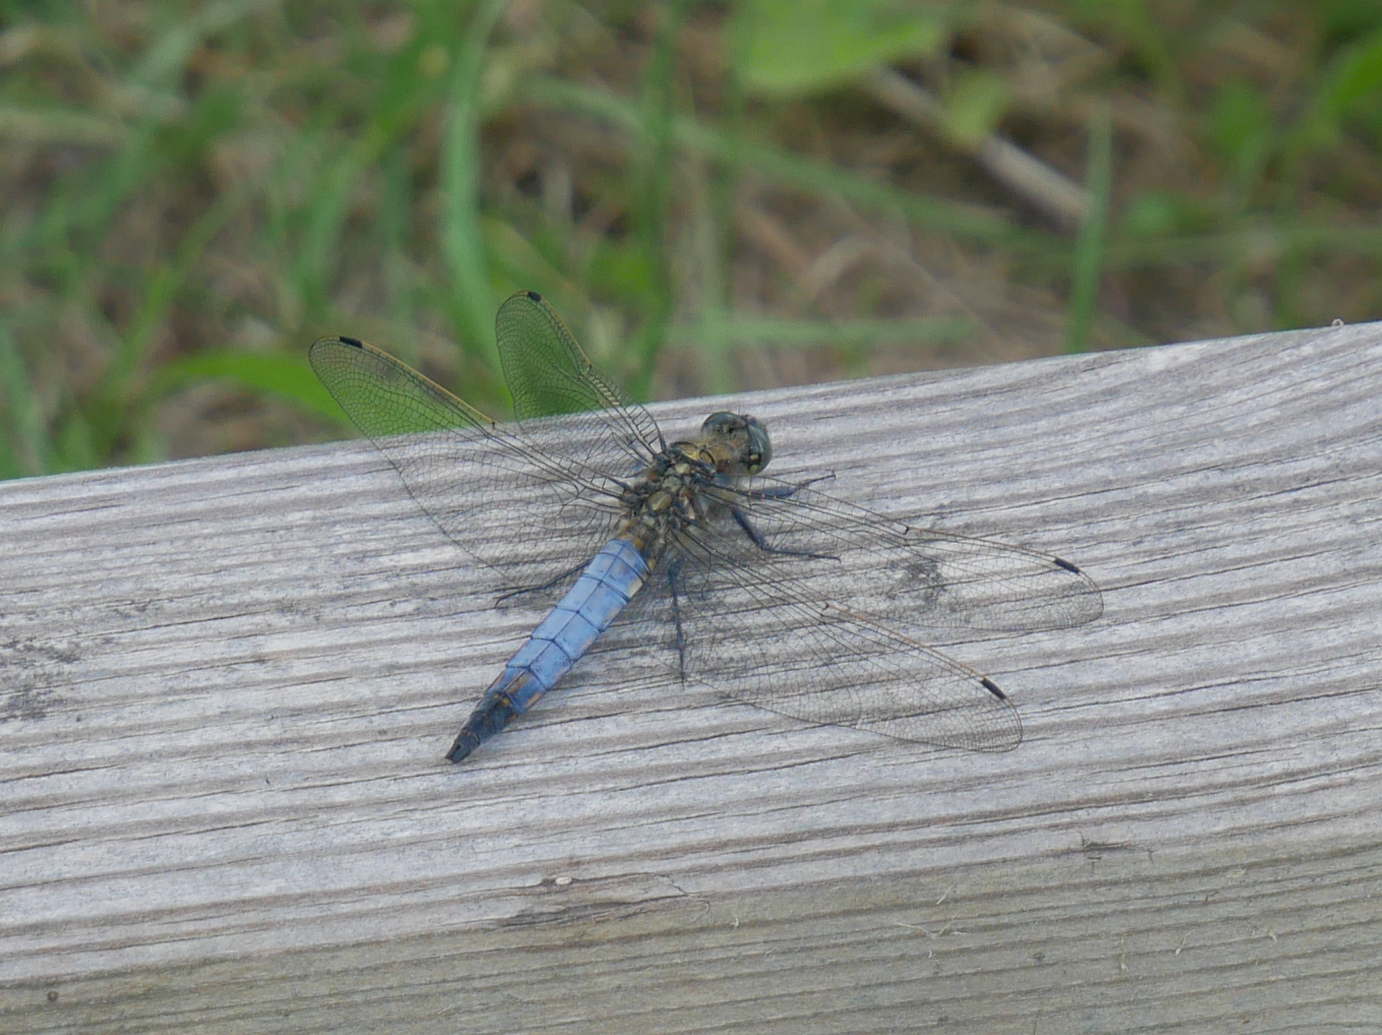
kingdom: Animalia
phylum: Arthropoda
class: Insecta
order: Odonata
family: Libellulidae
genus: Orthetrum
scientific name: Orthetrum cancellatum
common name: Black-tailed skimmer
